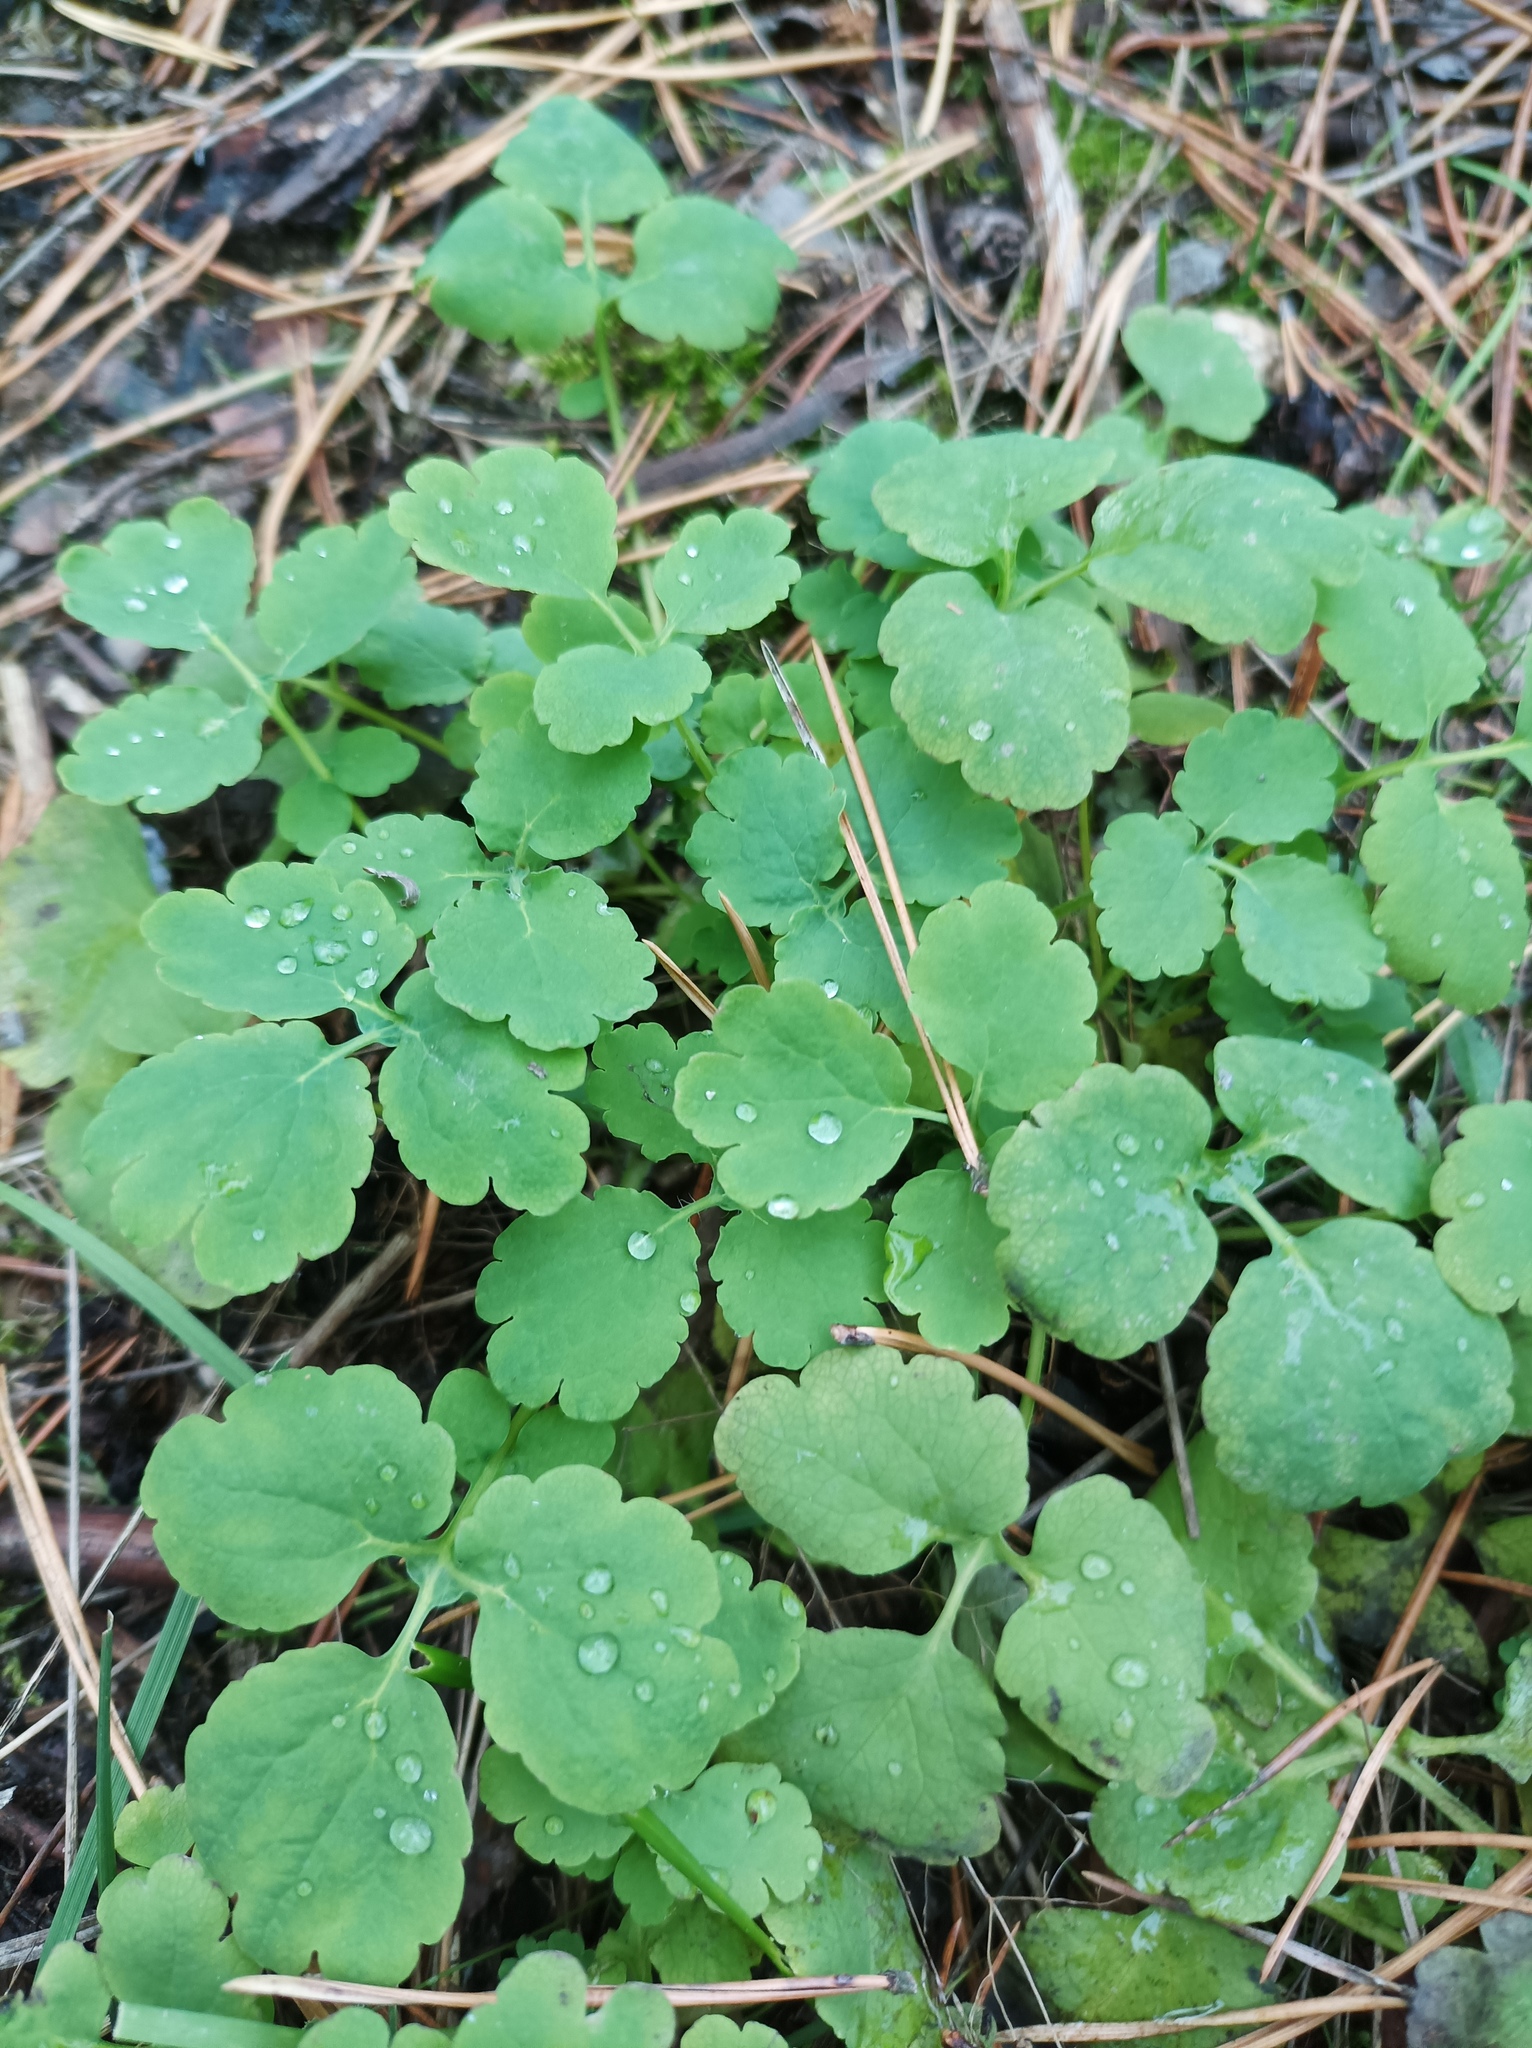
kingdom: Plantae
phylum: Tracheophyta
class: Magnoliopsida
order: Ranunculales
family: Papaveraceae
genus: Chelidonium
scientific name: Chelidonium majus
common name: Greater celandine
